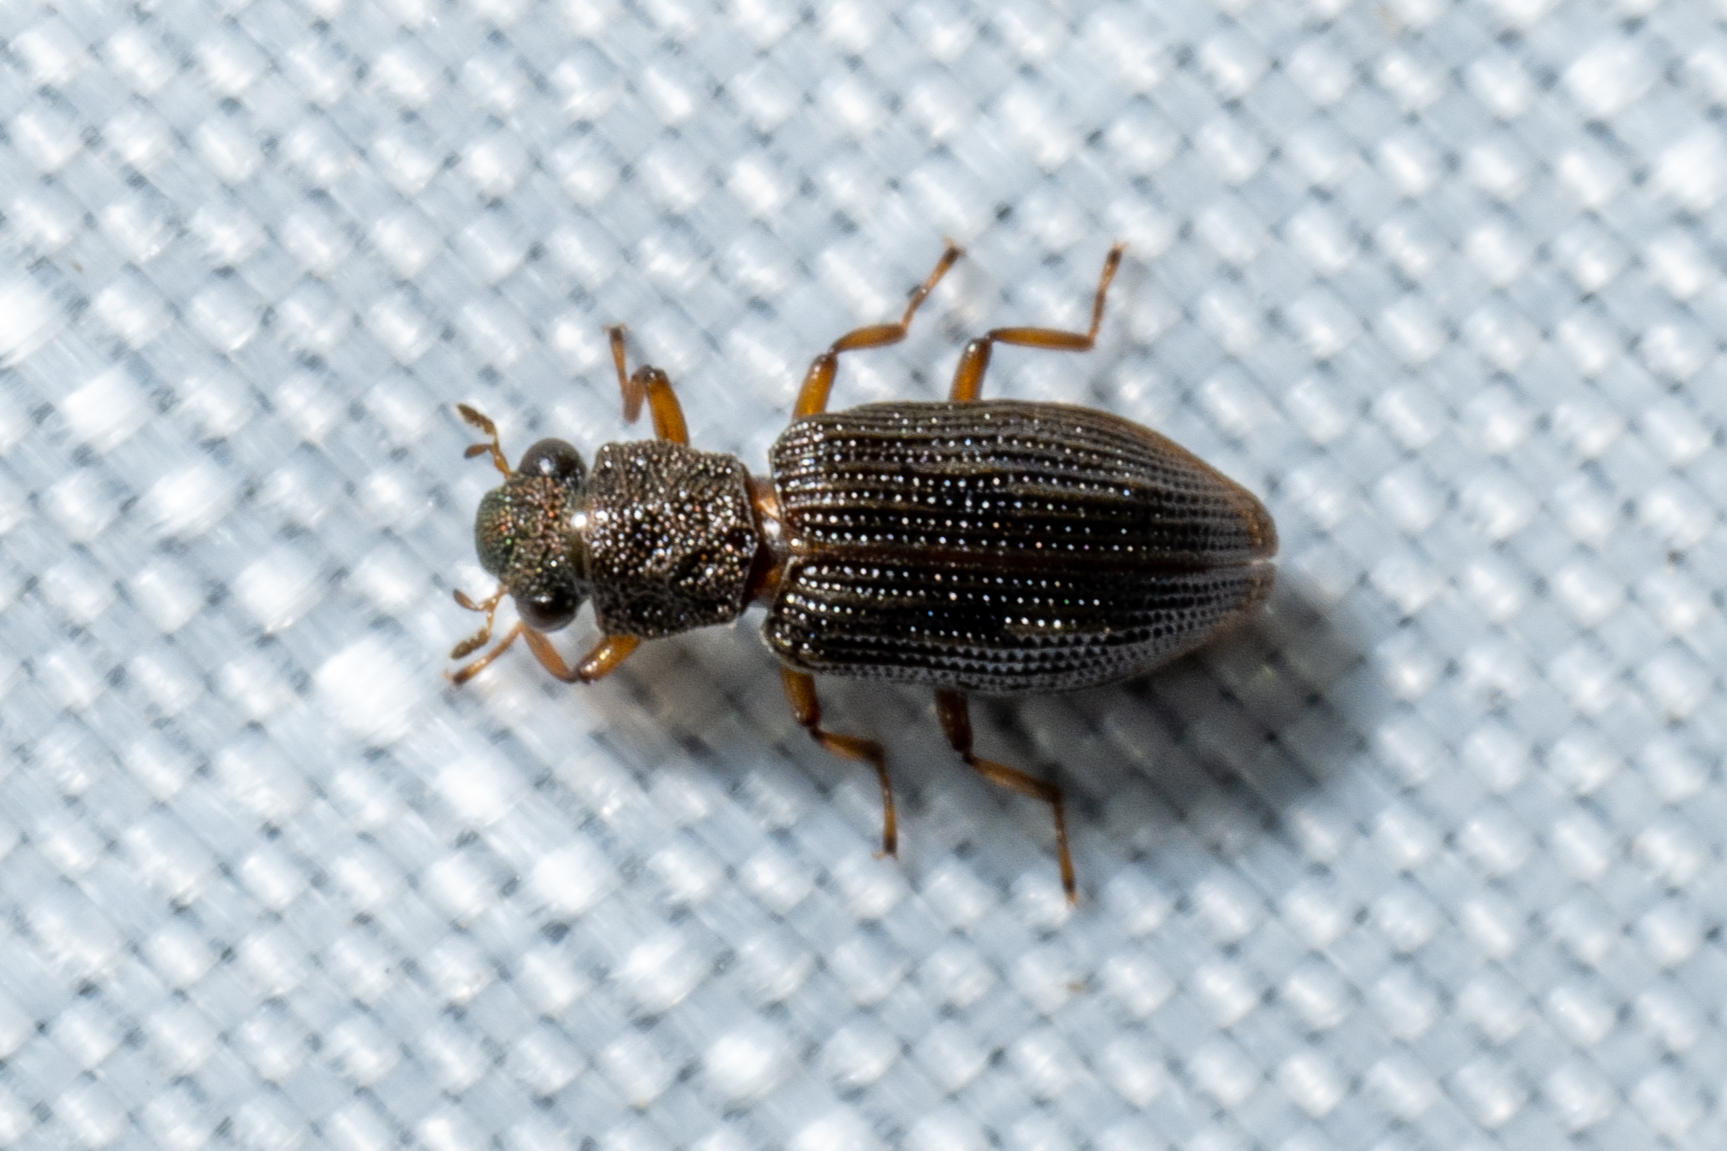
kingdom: Animalia
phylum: Arthropoda
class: Insecta
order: Coleoptera
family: Hydrochidae
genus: Hydrochus
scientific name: Hydrochus
